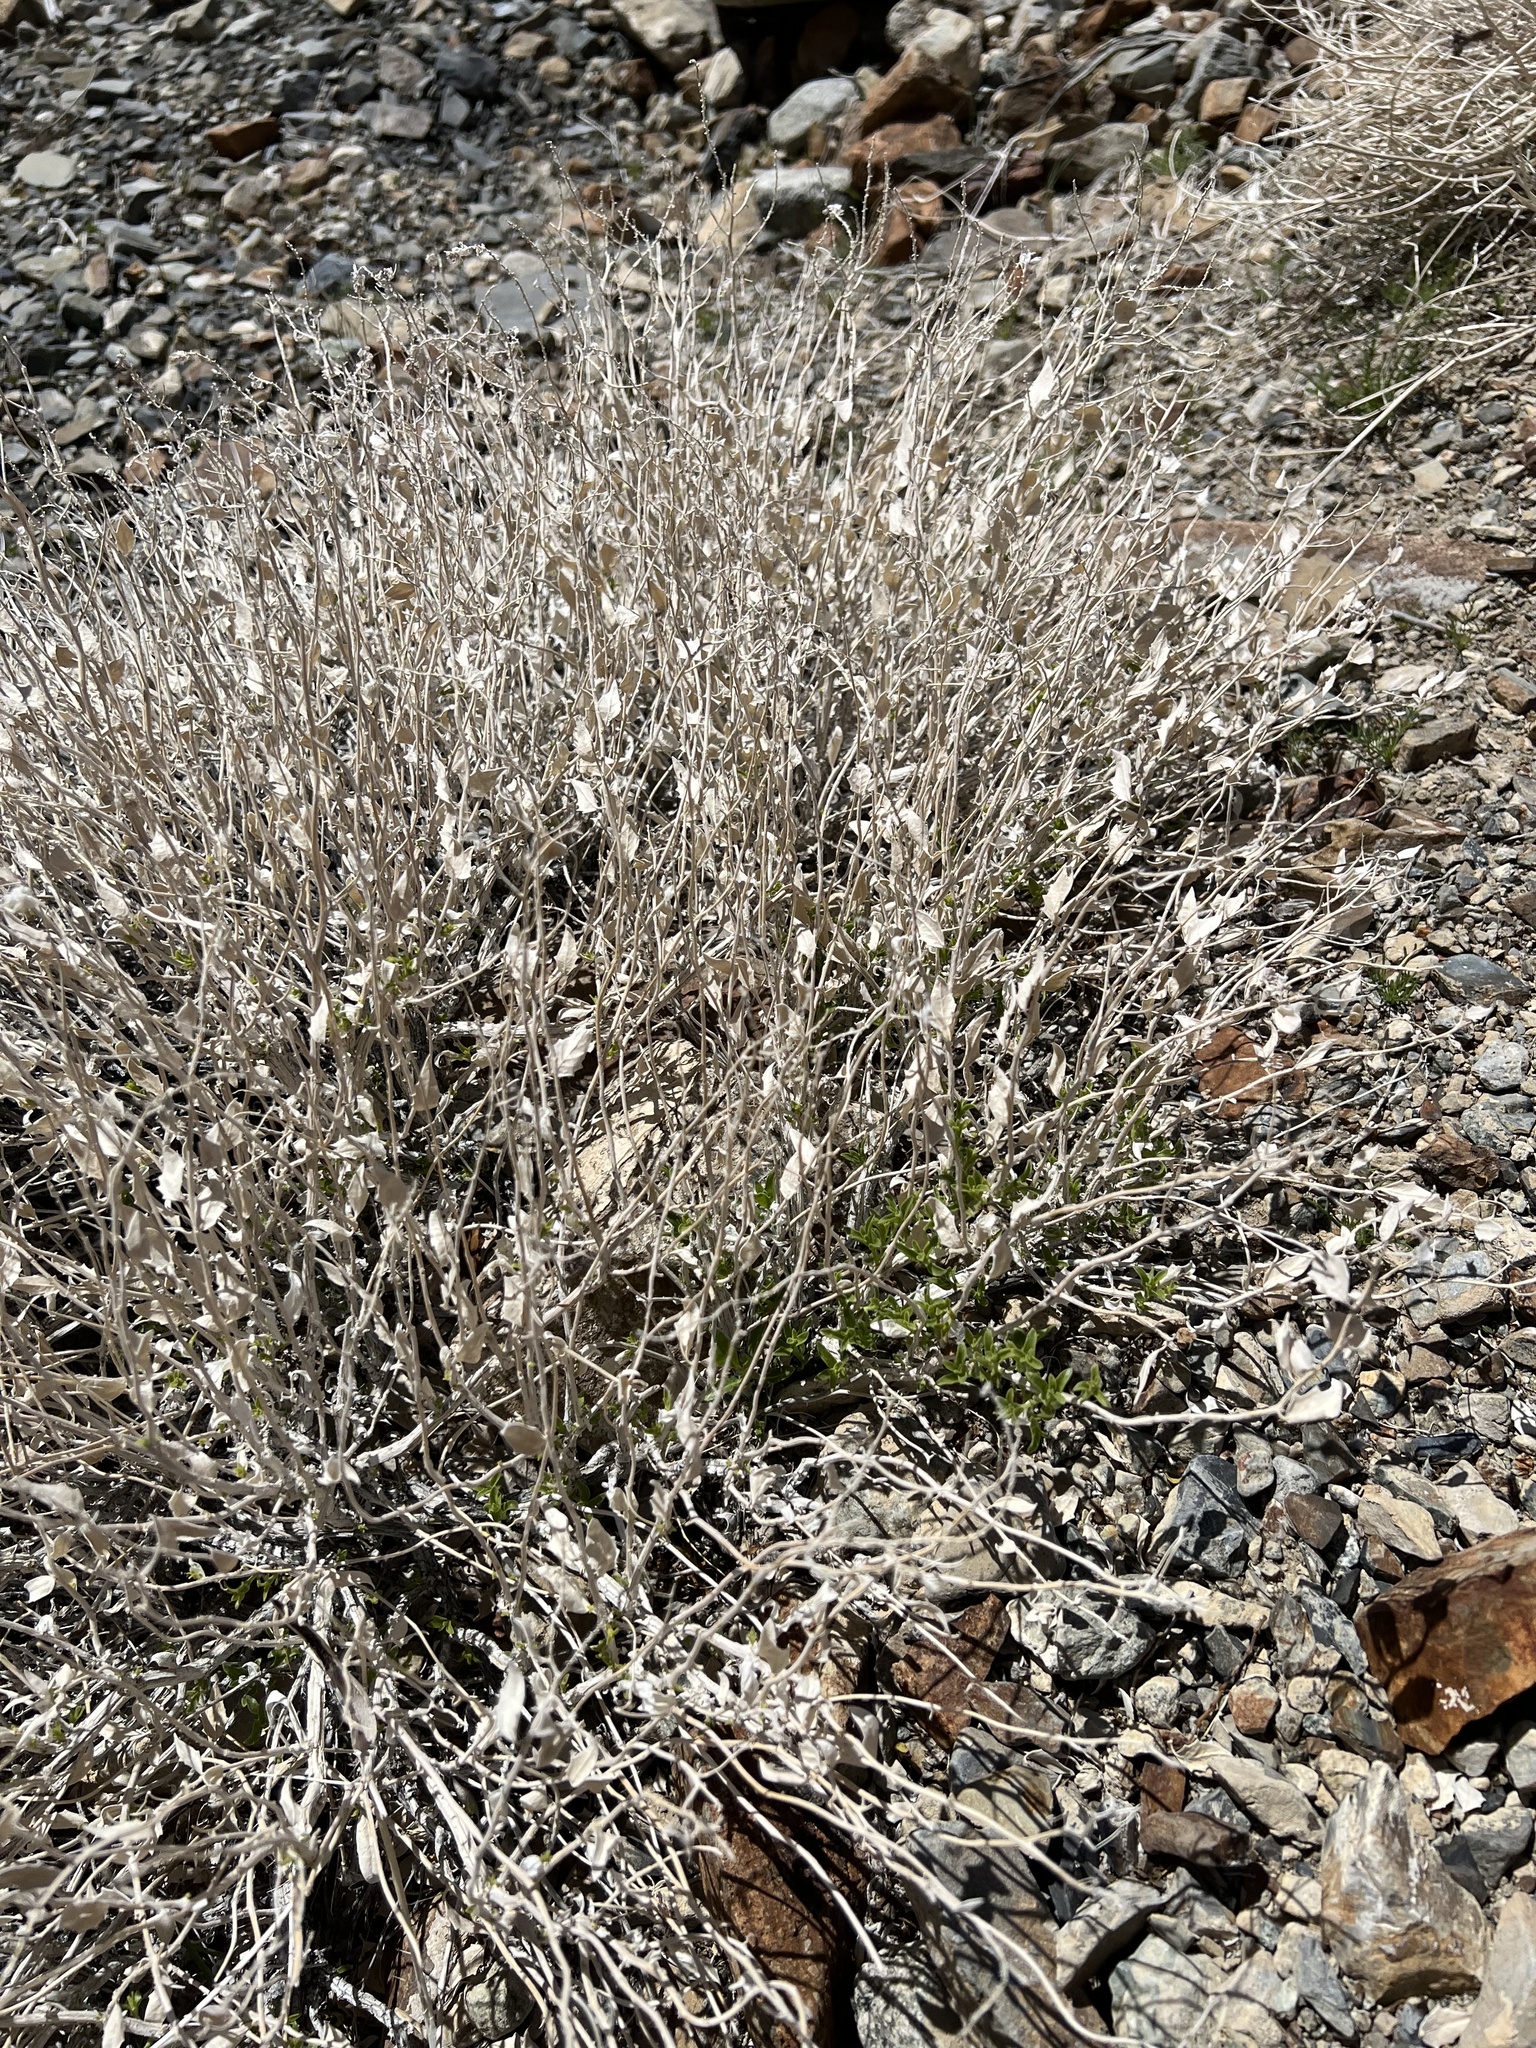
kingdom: Plantae
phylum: Tracheophyta
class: Magnoliopsida
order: Cornales
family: Loasaceae
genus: Petalonyx
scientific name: Petalonyx nitidus
